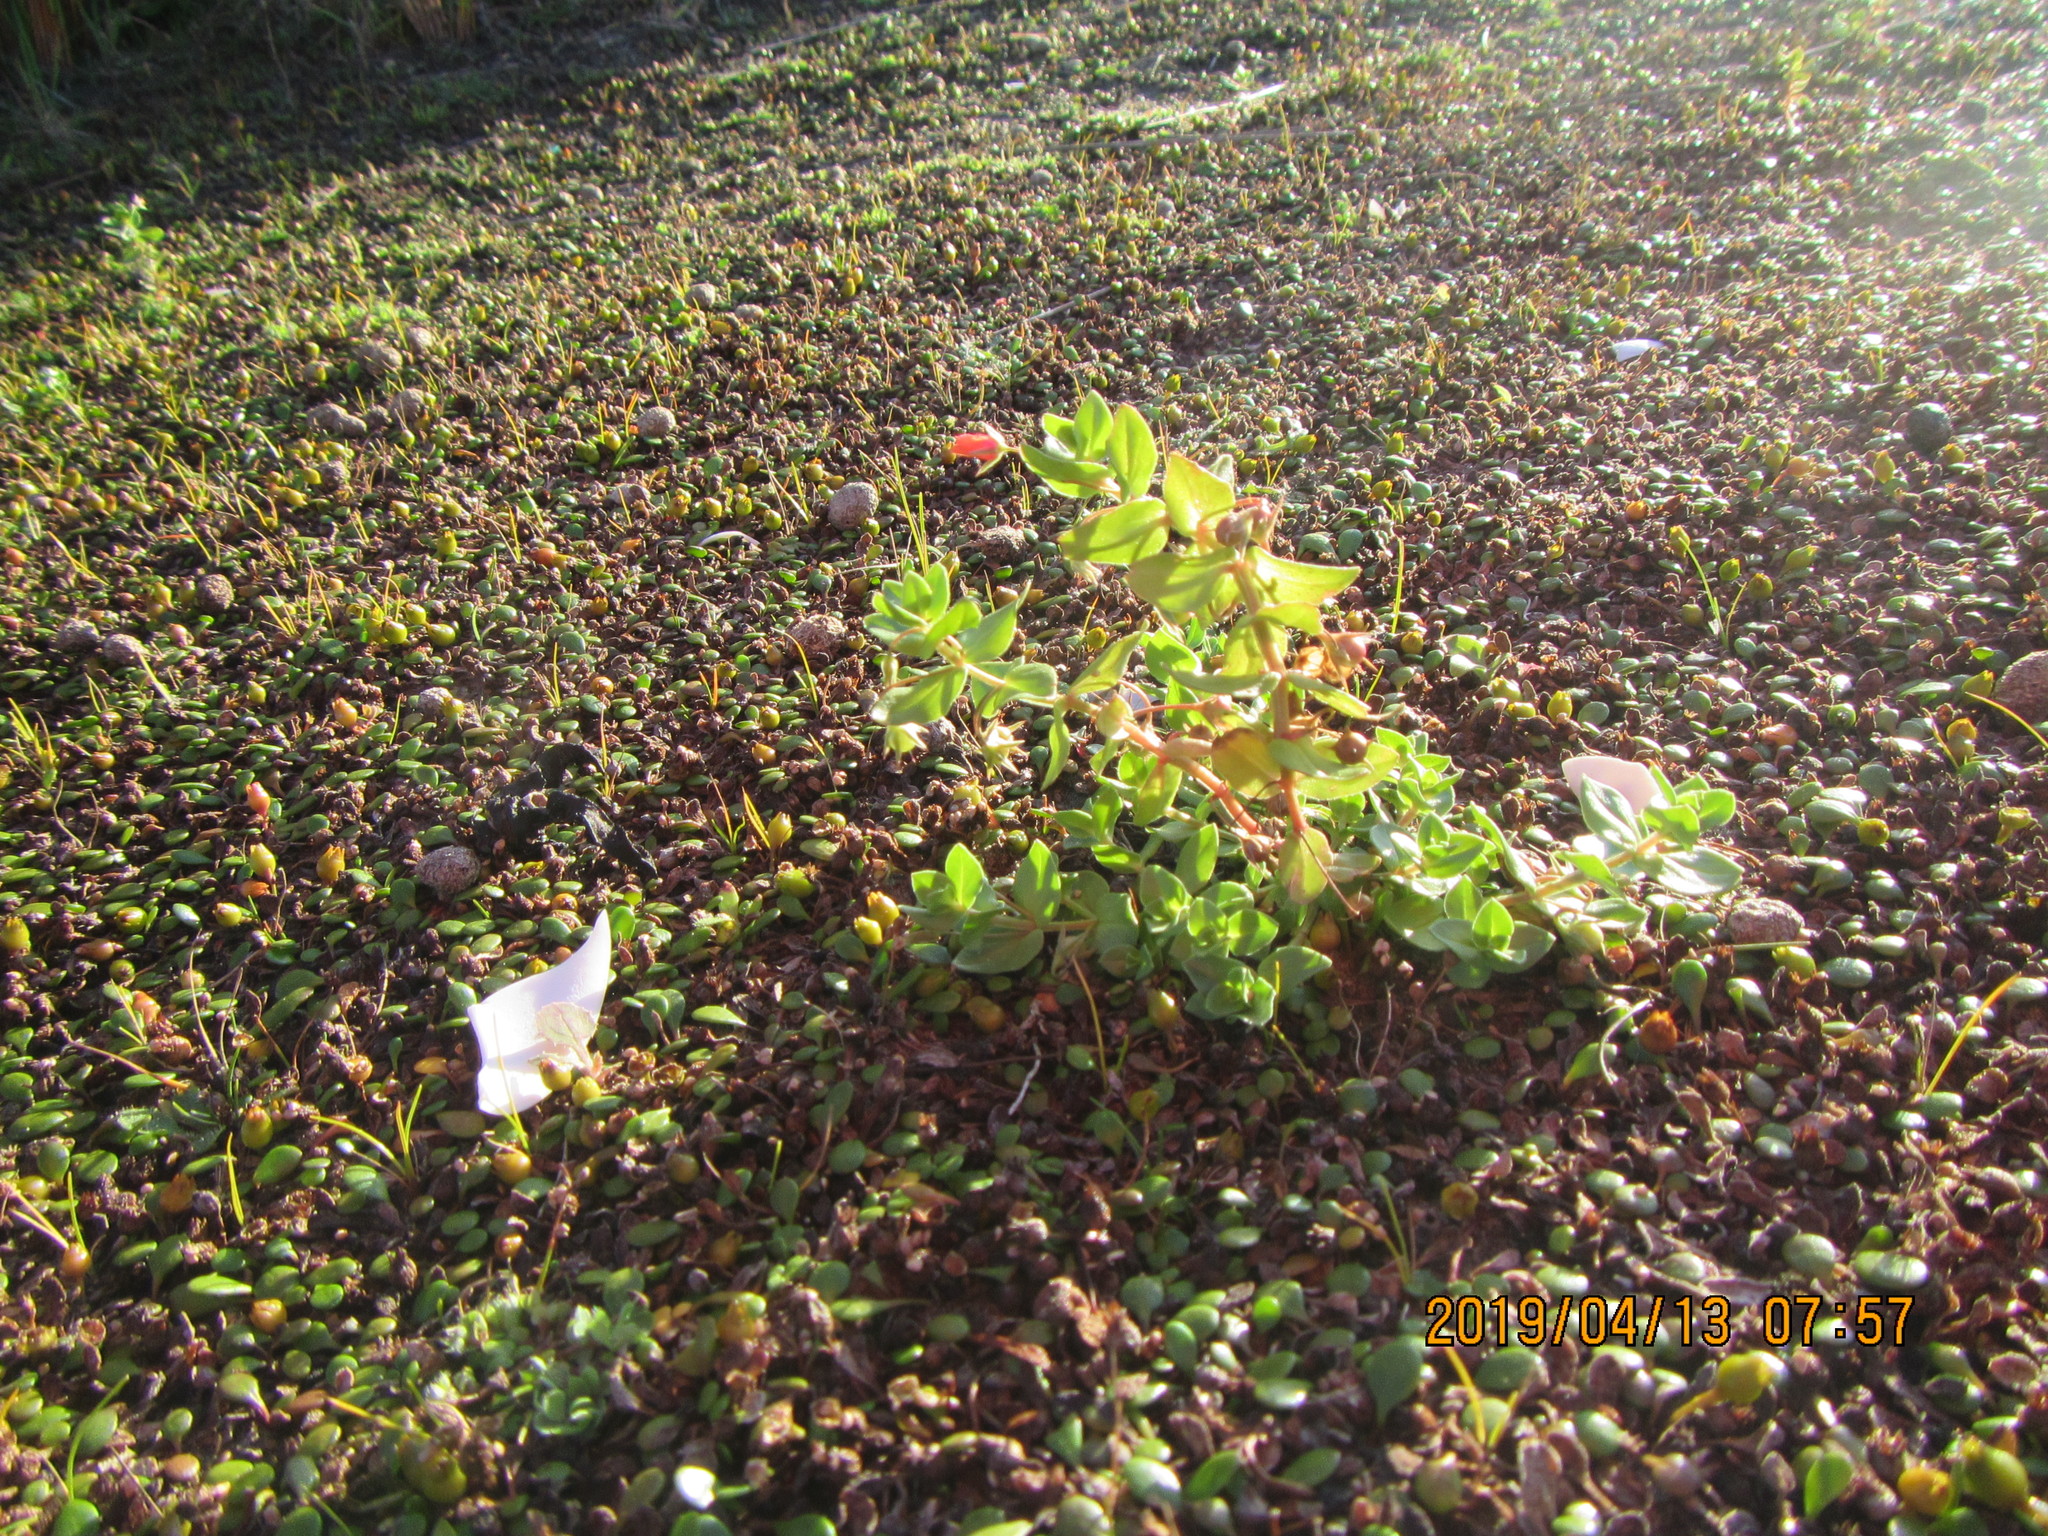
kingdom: Plantae
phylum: Tracheophyta
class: Magnoliopsida
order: Ericales
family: Primulaceae
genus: Lysimachia
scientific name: Lysimachia arvensis
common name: Scarlet pimpernel
